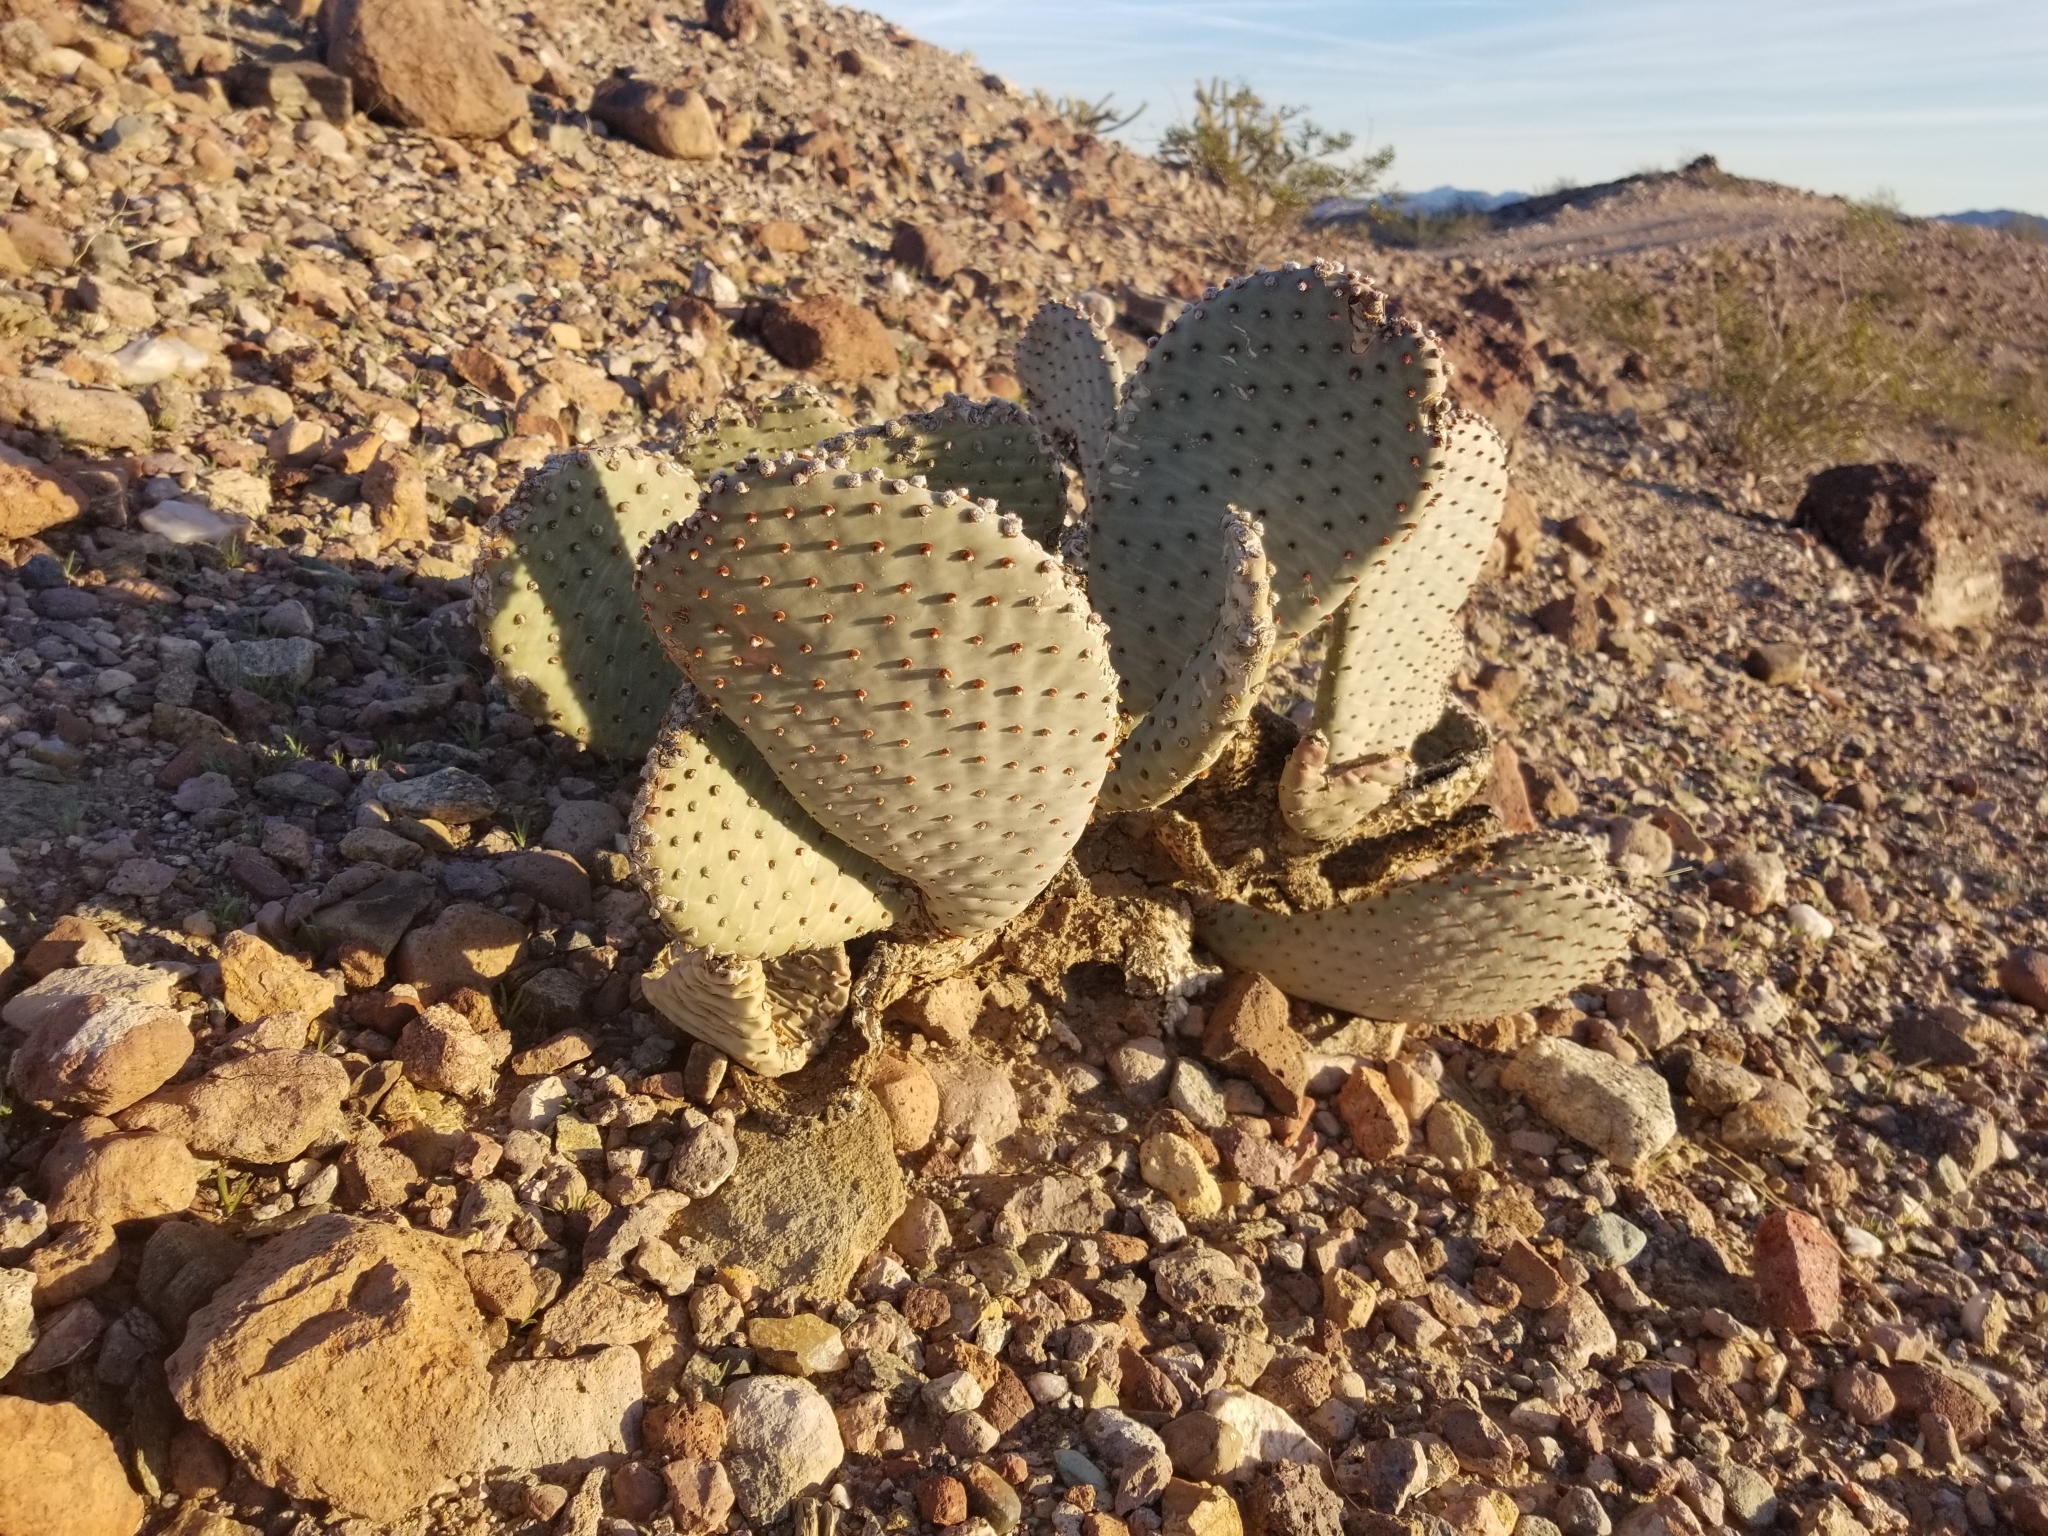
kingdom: Plantae
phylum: Tracheophyta
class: Magnoliopsida
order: Caryophyllales
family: Cactaceae
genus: Opuntia
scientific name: Opuntia basilaris
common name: Beavertail prickly-pear
